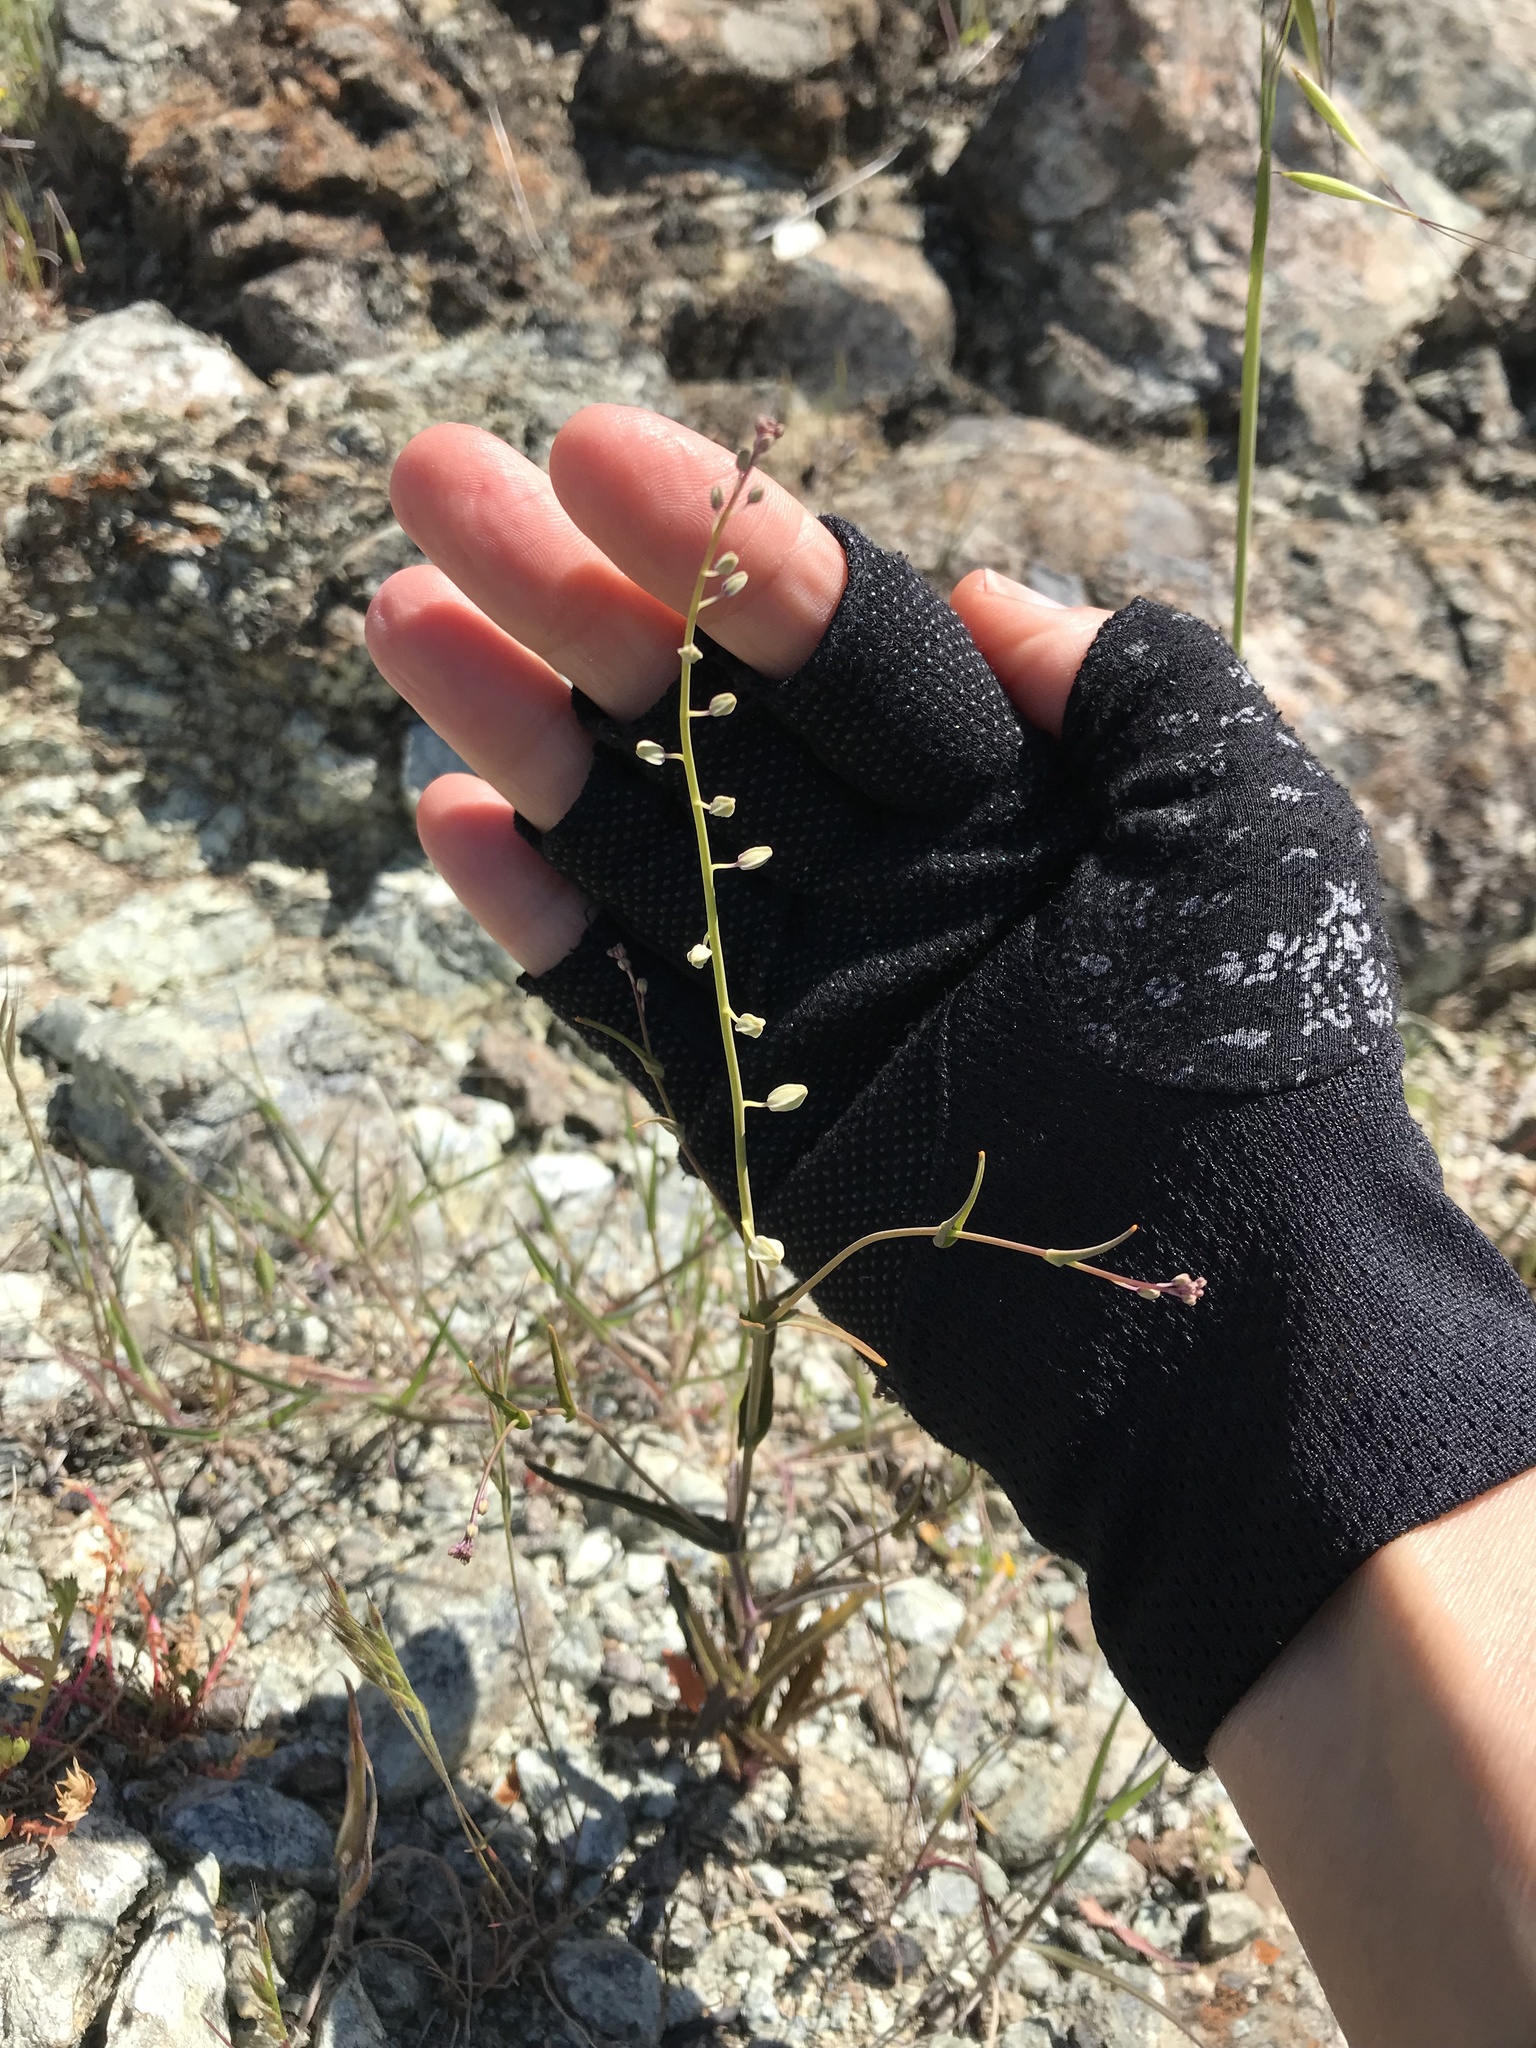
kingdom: Plantae
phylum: Tracheophyta
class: Magnoliopsida
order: Brassicales
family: Brassicaceae
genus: Streptanthus
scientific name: Streptanthus glandulosus
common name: Jewel-flower
